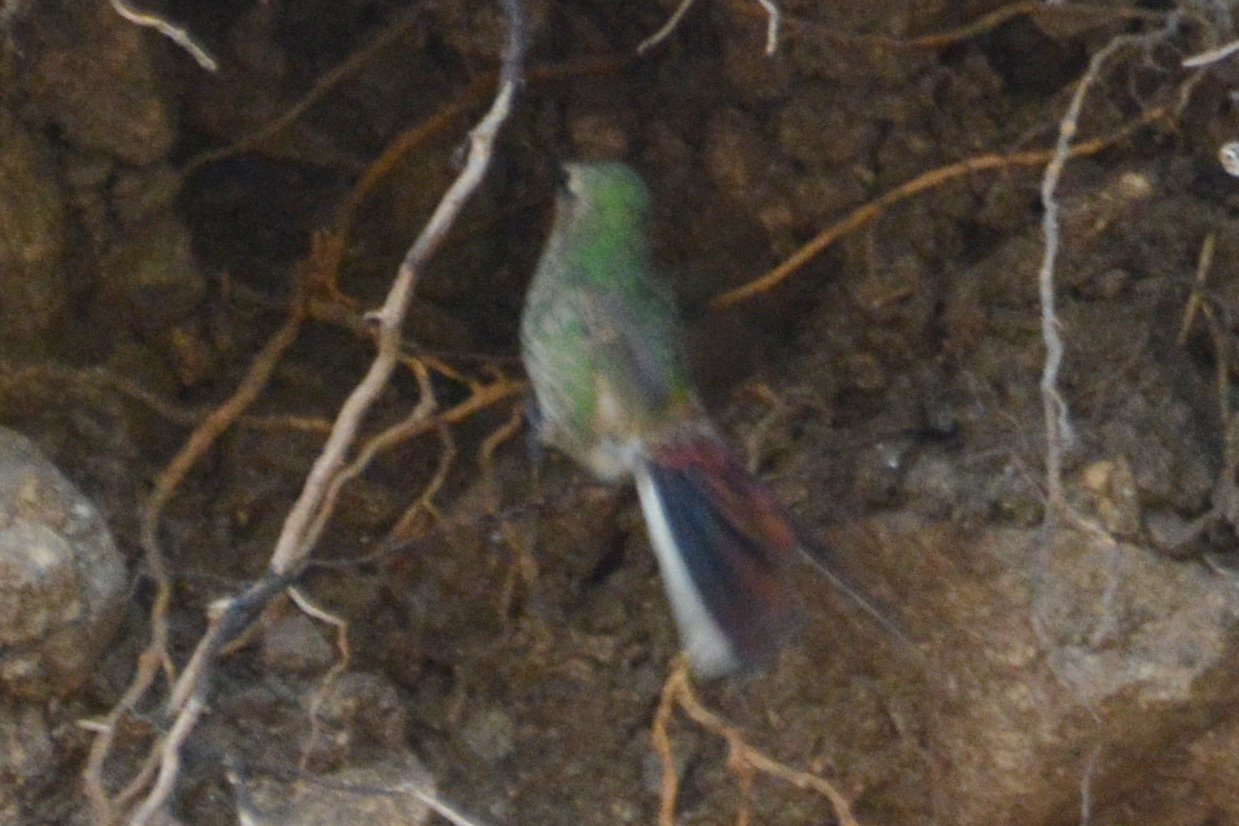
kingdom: Animalia
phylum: Chordata
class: Aves
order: Apodiformes
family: Trochilidae
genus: Sappho
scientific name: Sappho sparganurus
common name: Red-tailed comet
